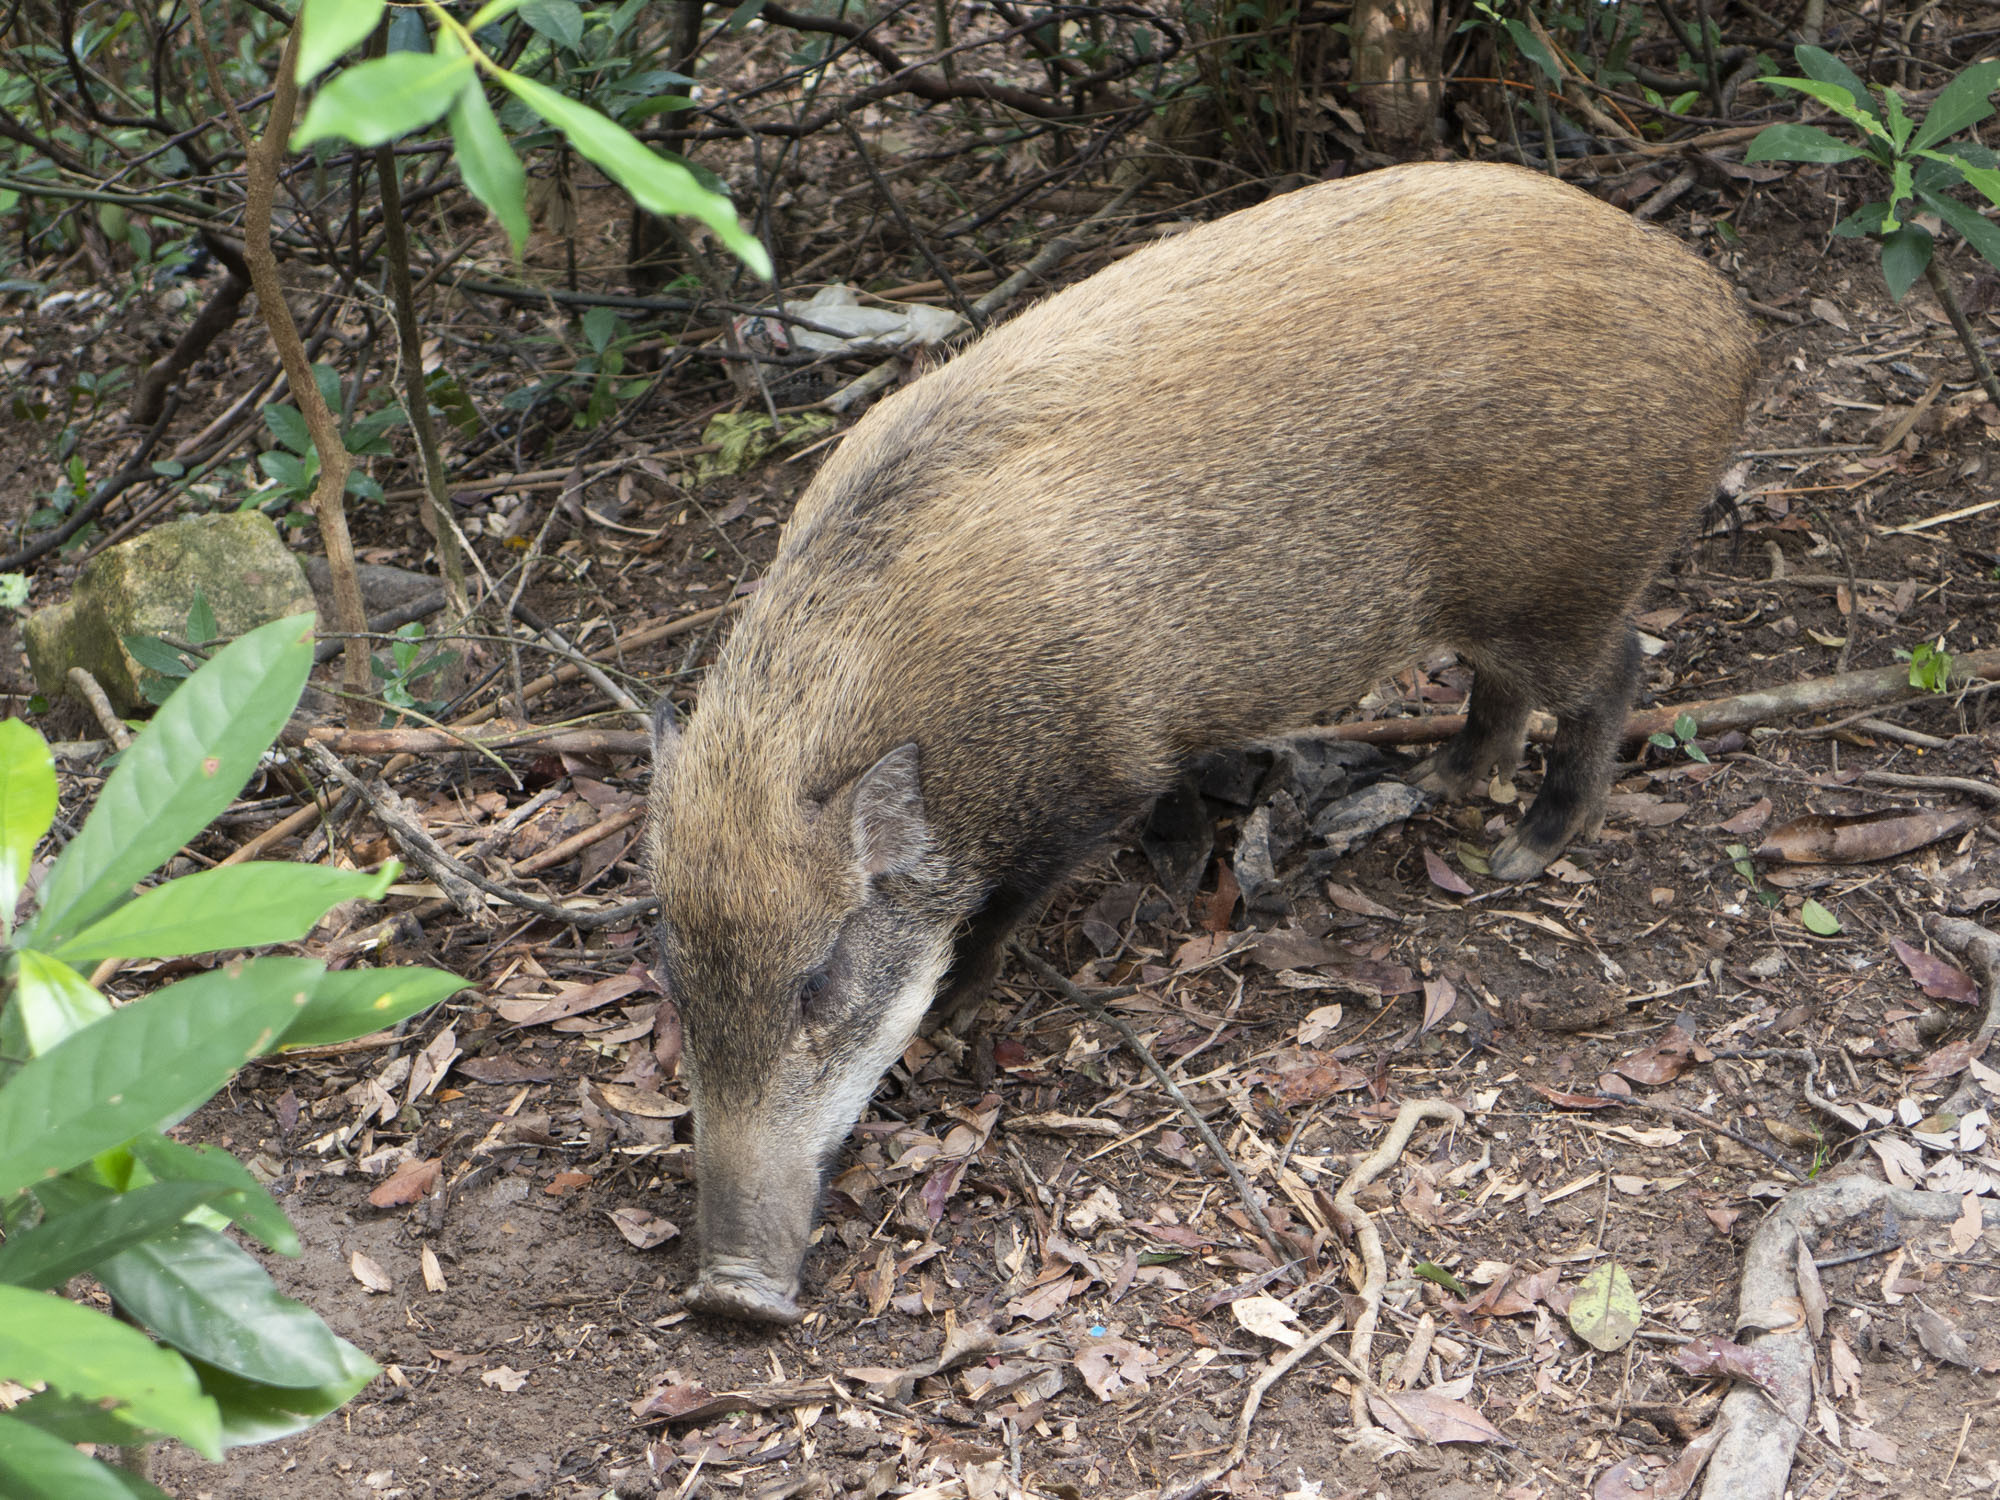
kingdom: Animalia
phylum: Chordata
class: Mammalia
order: Artiodactyla
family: Suidae
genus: Sus
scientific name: Sus scrofa
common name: Wild boar
